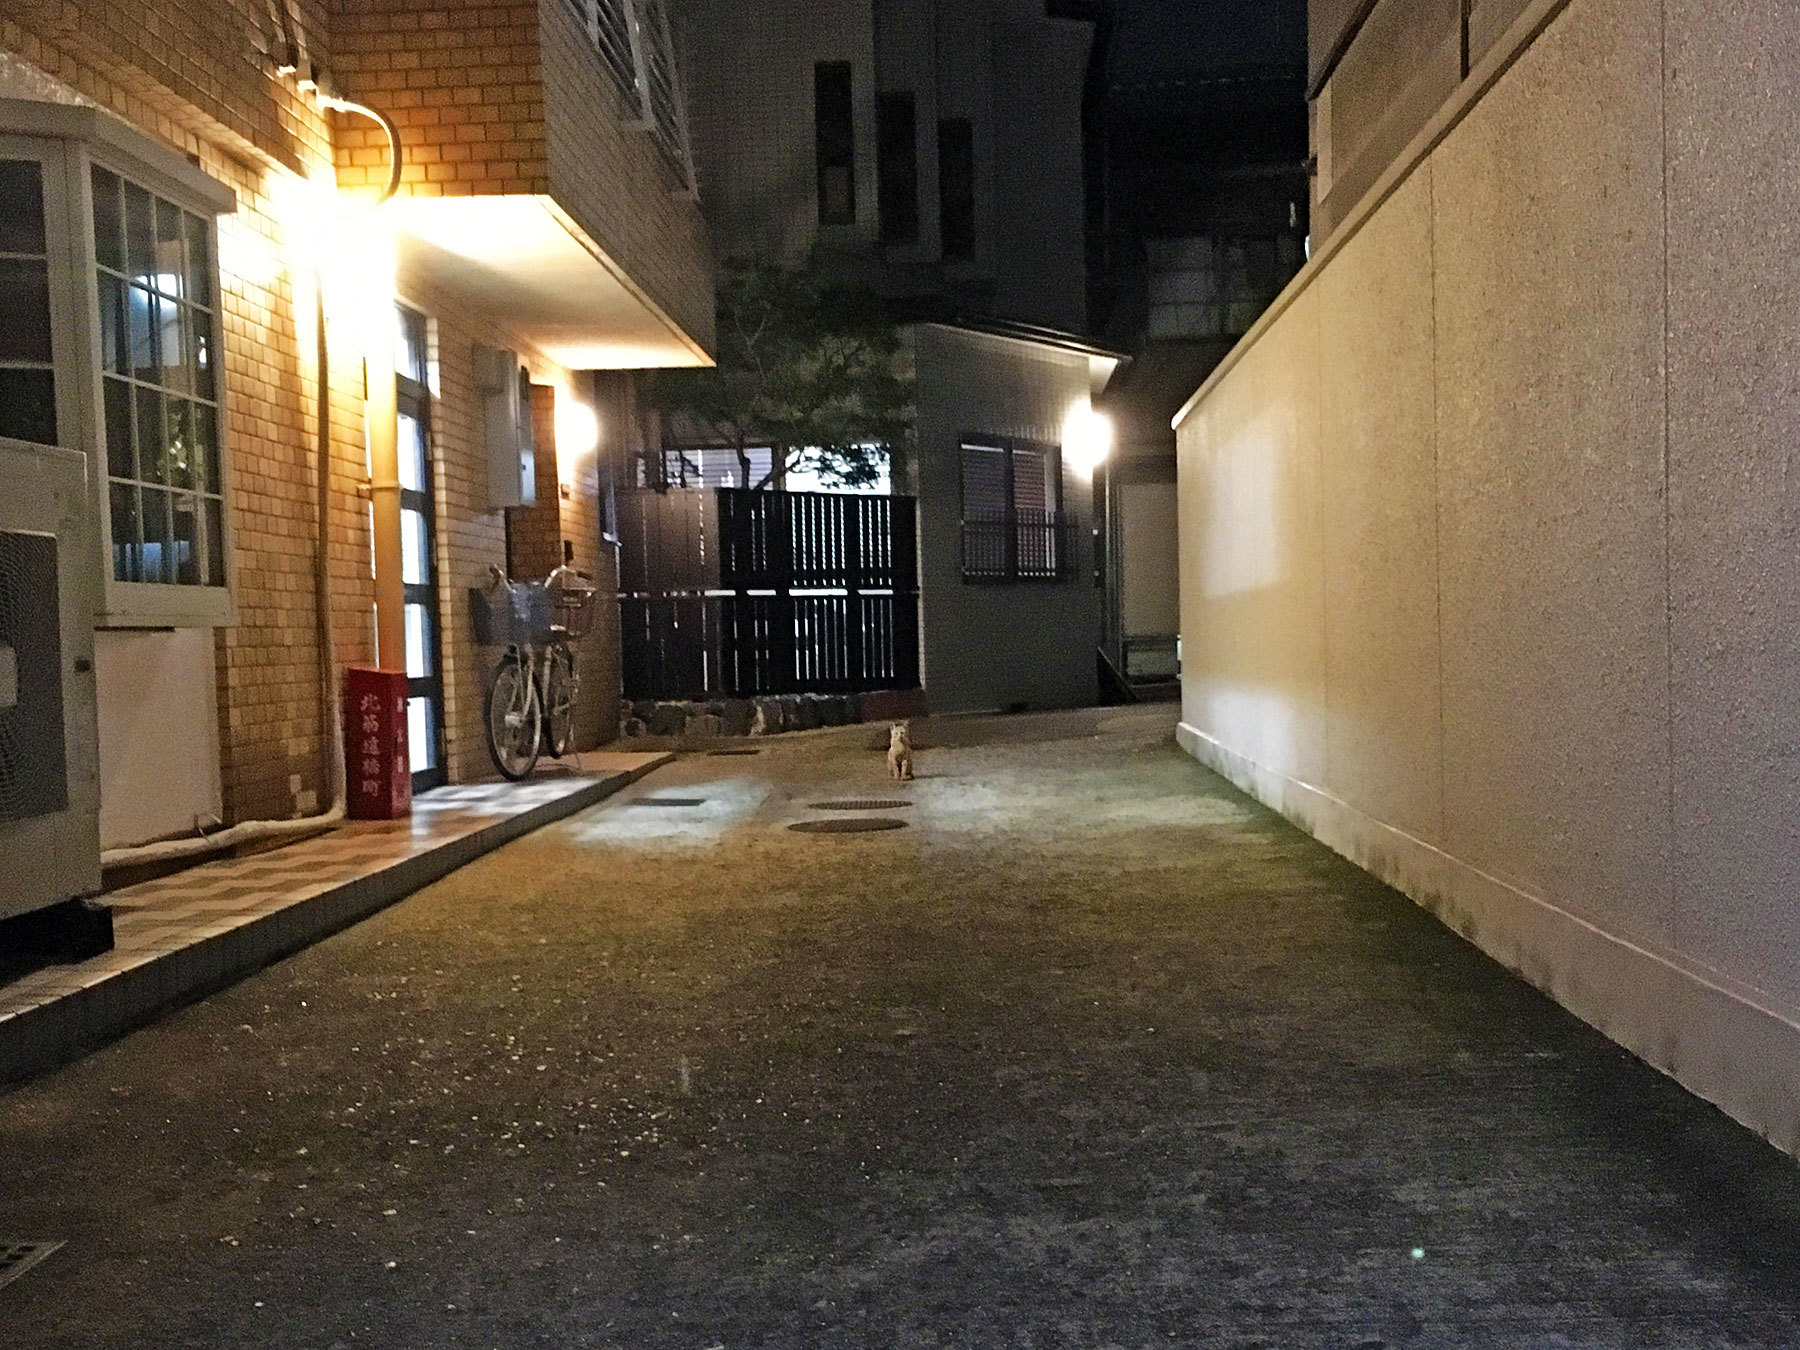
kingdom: Animalia
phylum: Chordata
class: Mammalia
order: Carnivora
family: Felidae
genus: Felis
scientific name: Felis catus
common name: Domestic cat
